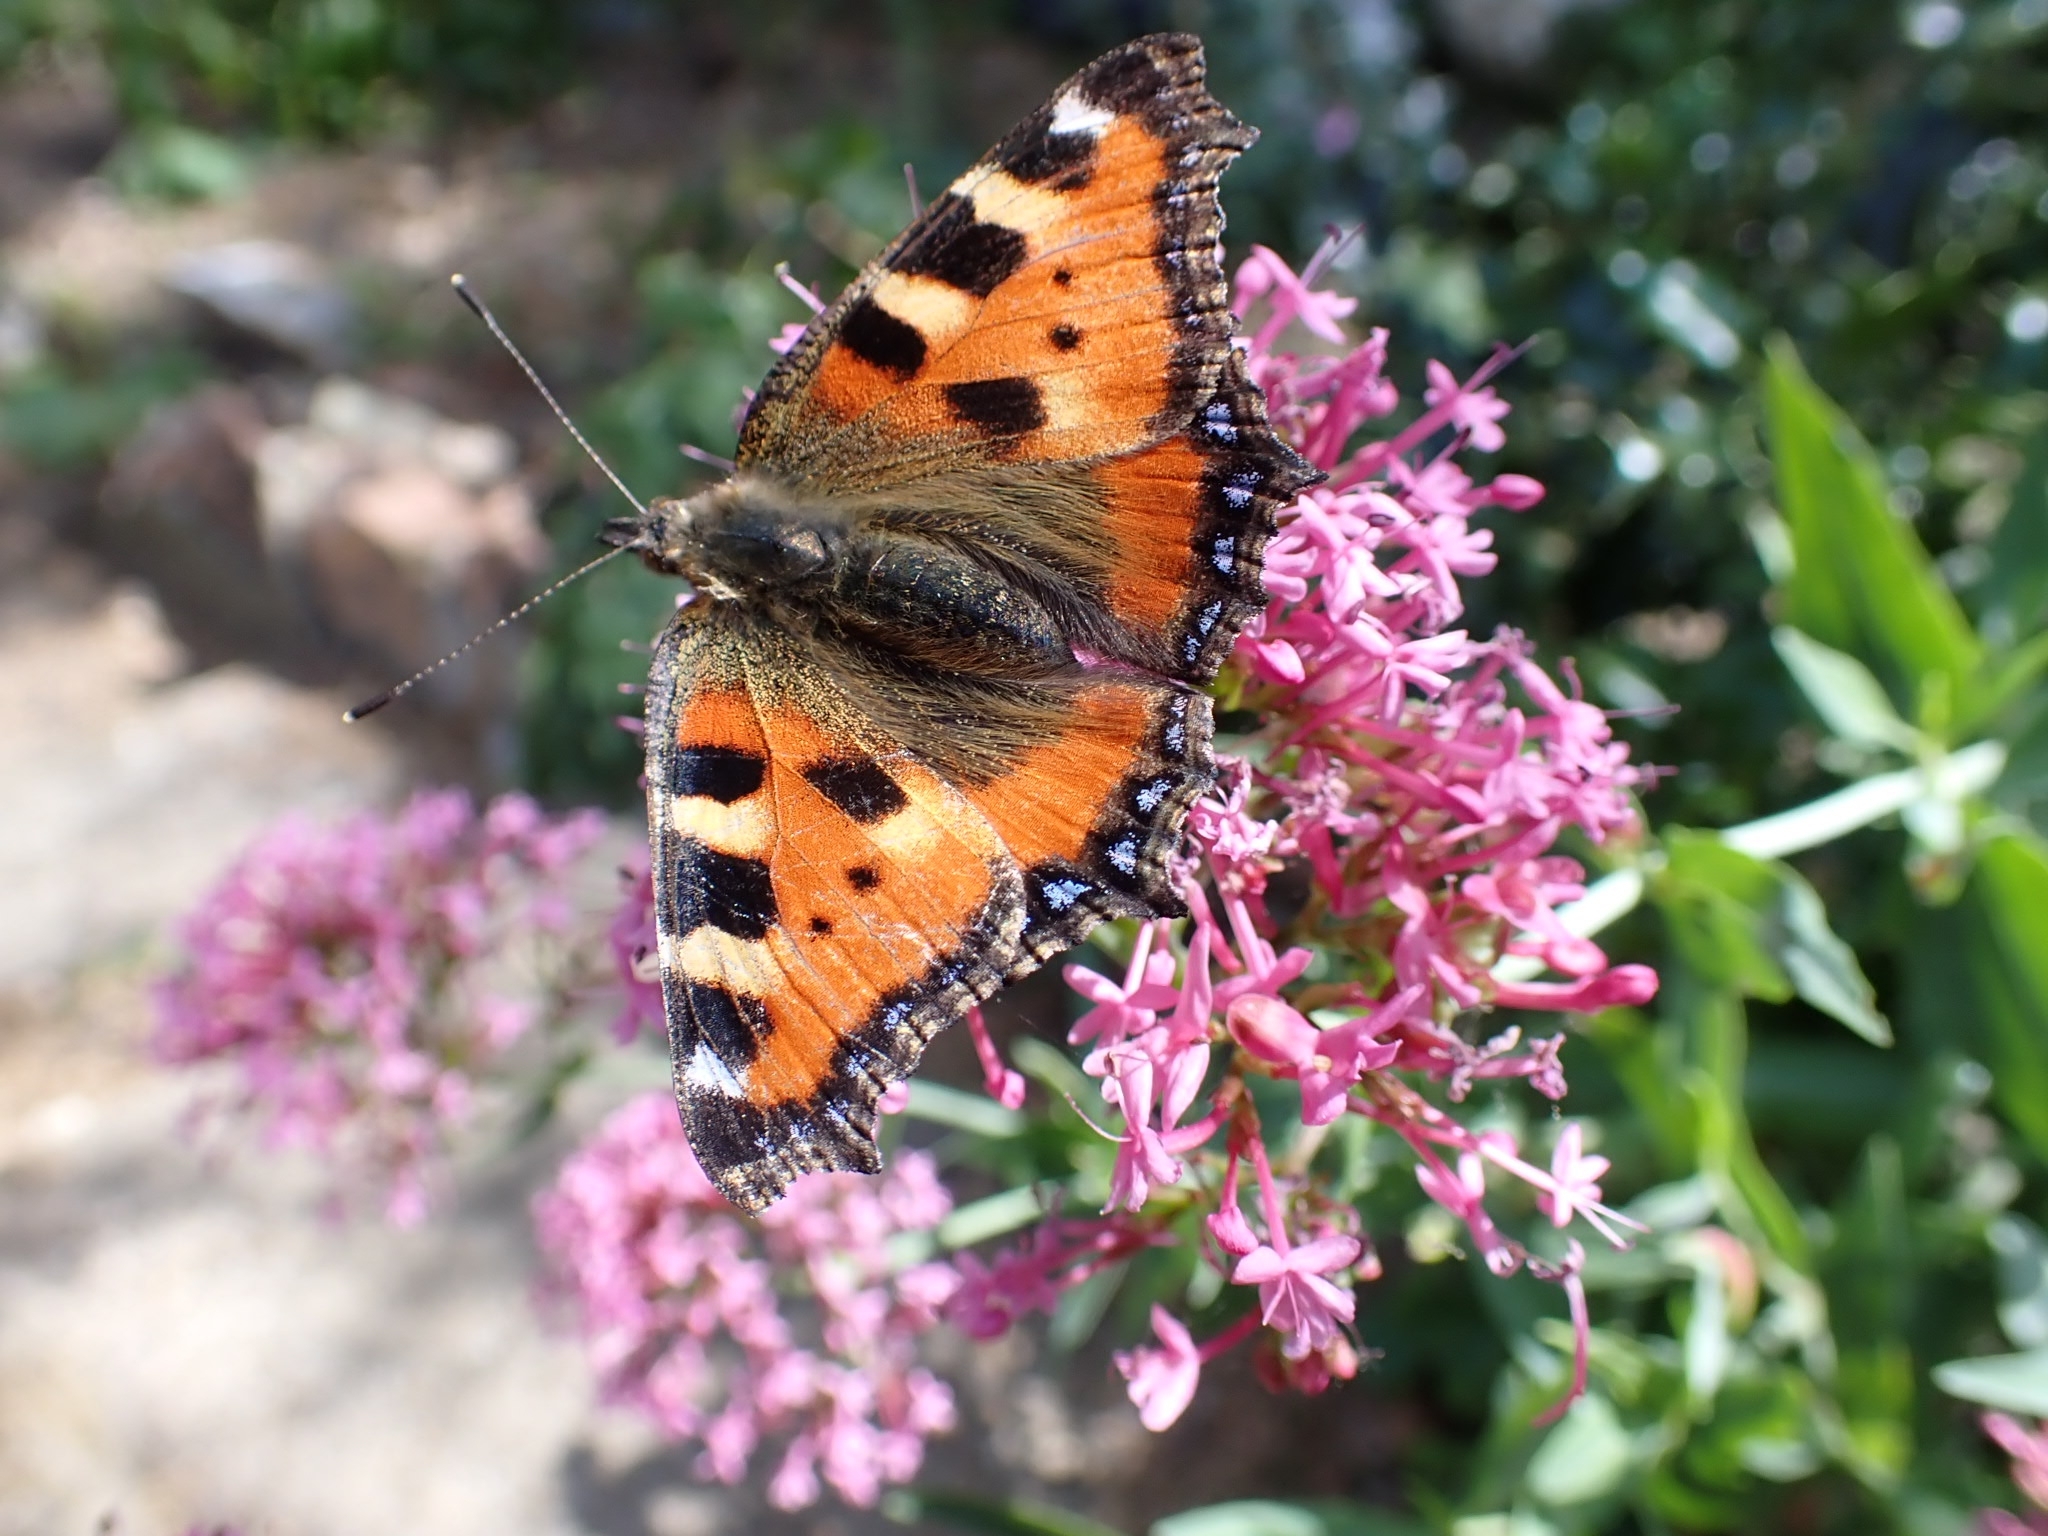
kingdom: Animalia
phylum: Arthropoda
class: Insecta
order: Lepidoptera
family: Nymphalidae
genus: Aglais
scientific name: Aglais urticae
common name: Small tortoiseshell
